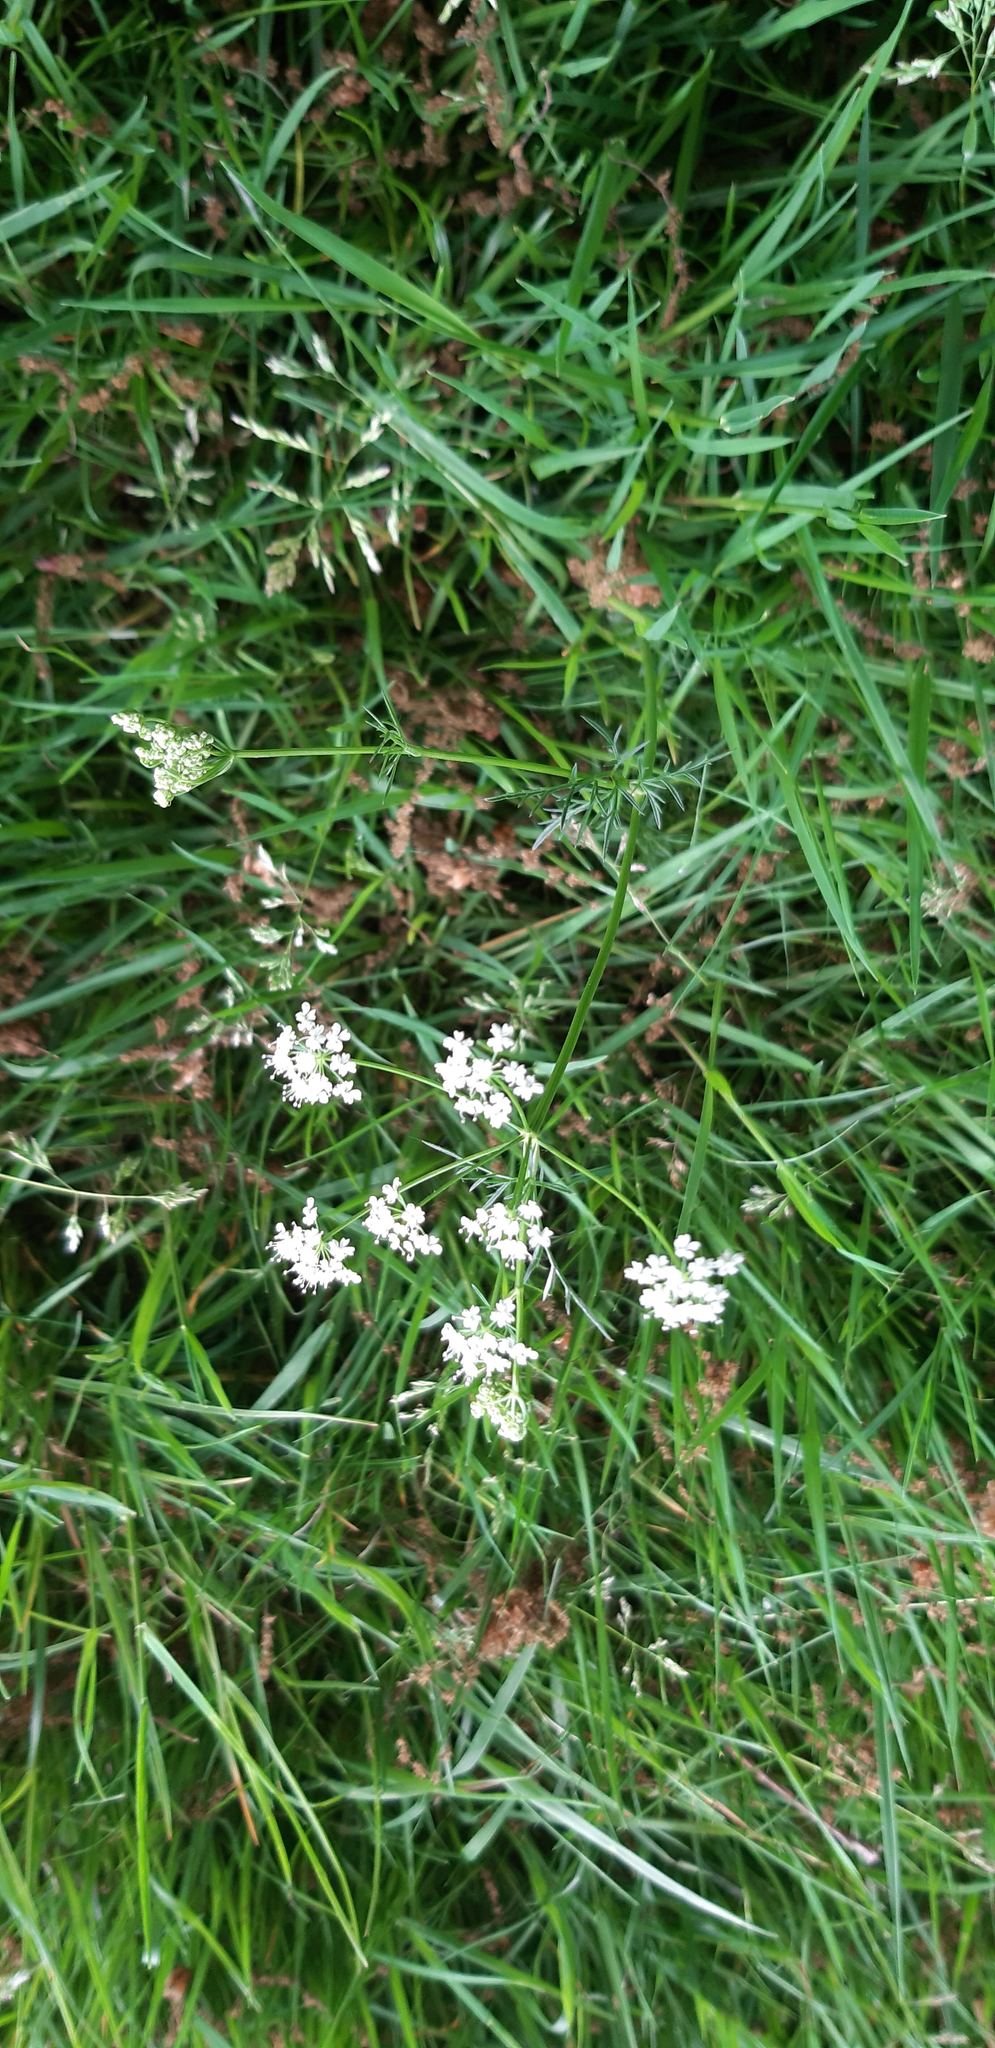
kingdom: Plantae
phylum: Tracheophyta
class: Magnoliopsida
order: Apiales
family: Apiaceae
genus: Conopodium
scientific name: Conopodium majus
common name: Pignut
